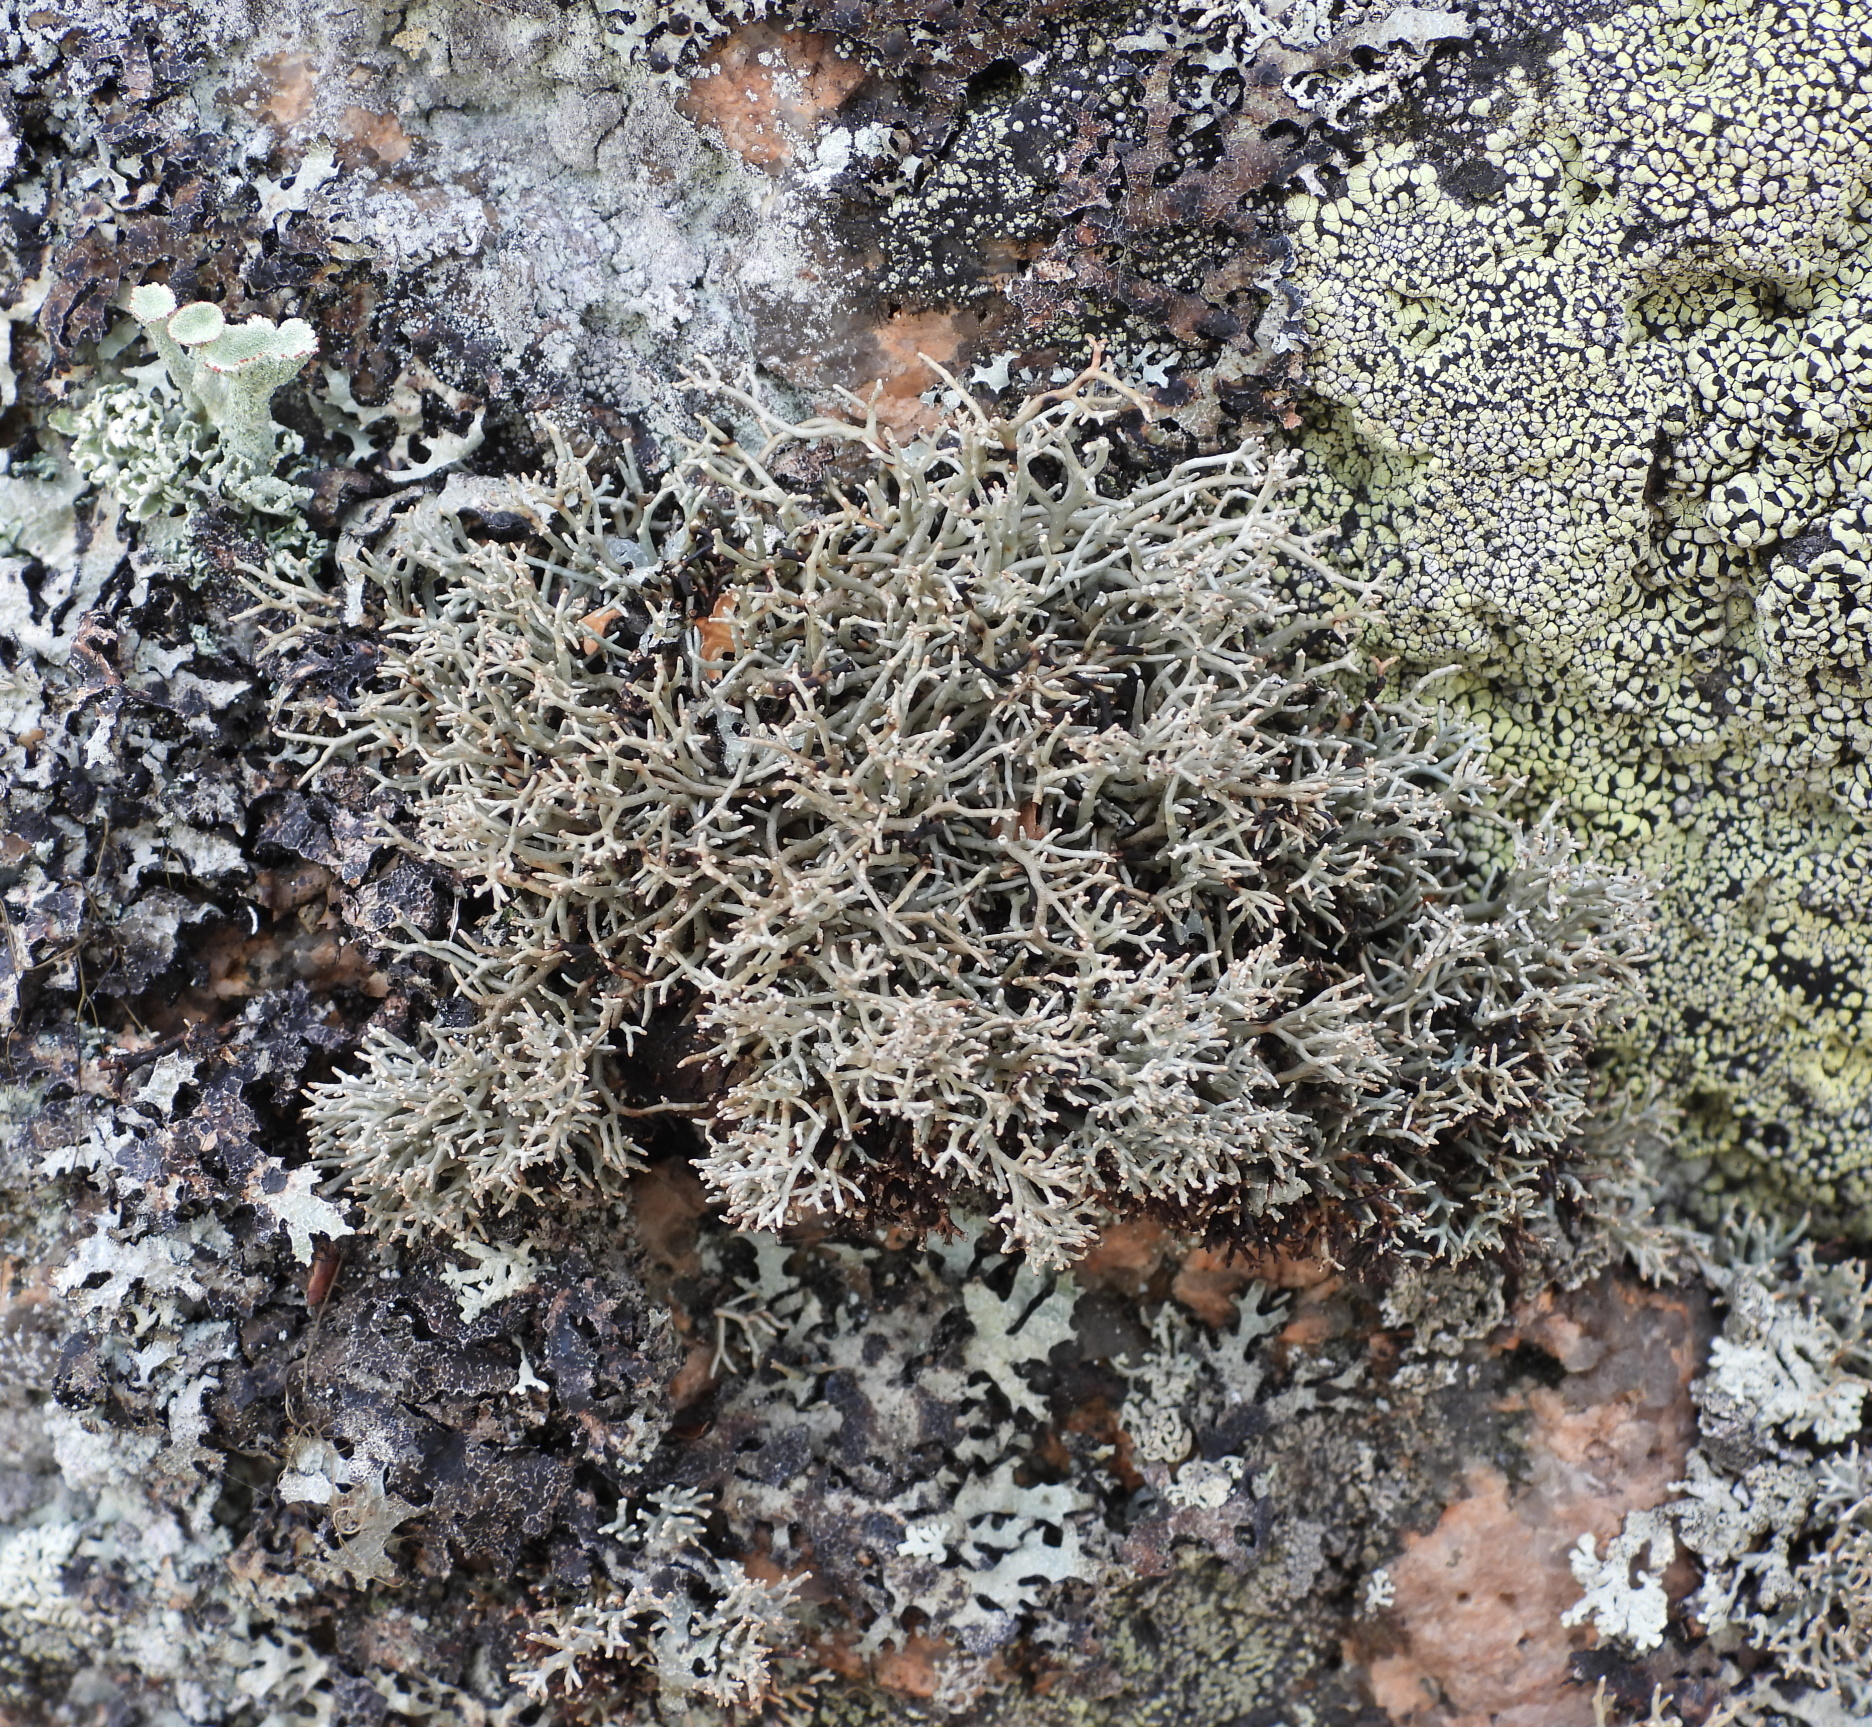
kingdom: Fungi
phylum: Ascomycota
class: Lecanoromycetes
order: Lecanorales
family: Sphaerophoraceae
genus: Sphaerophorus
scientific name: Sphaerophorus fragilis
